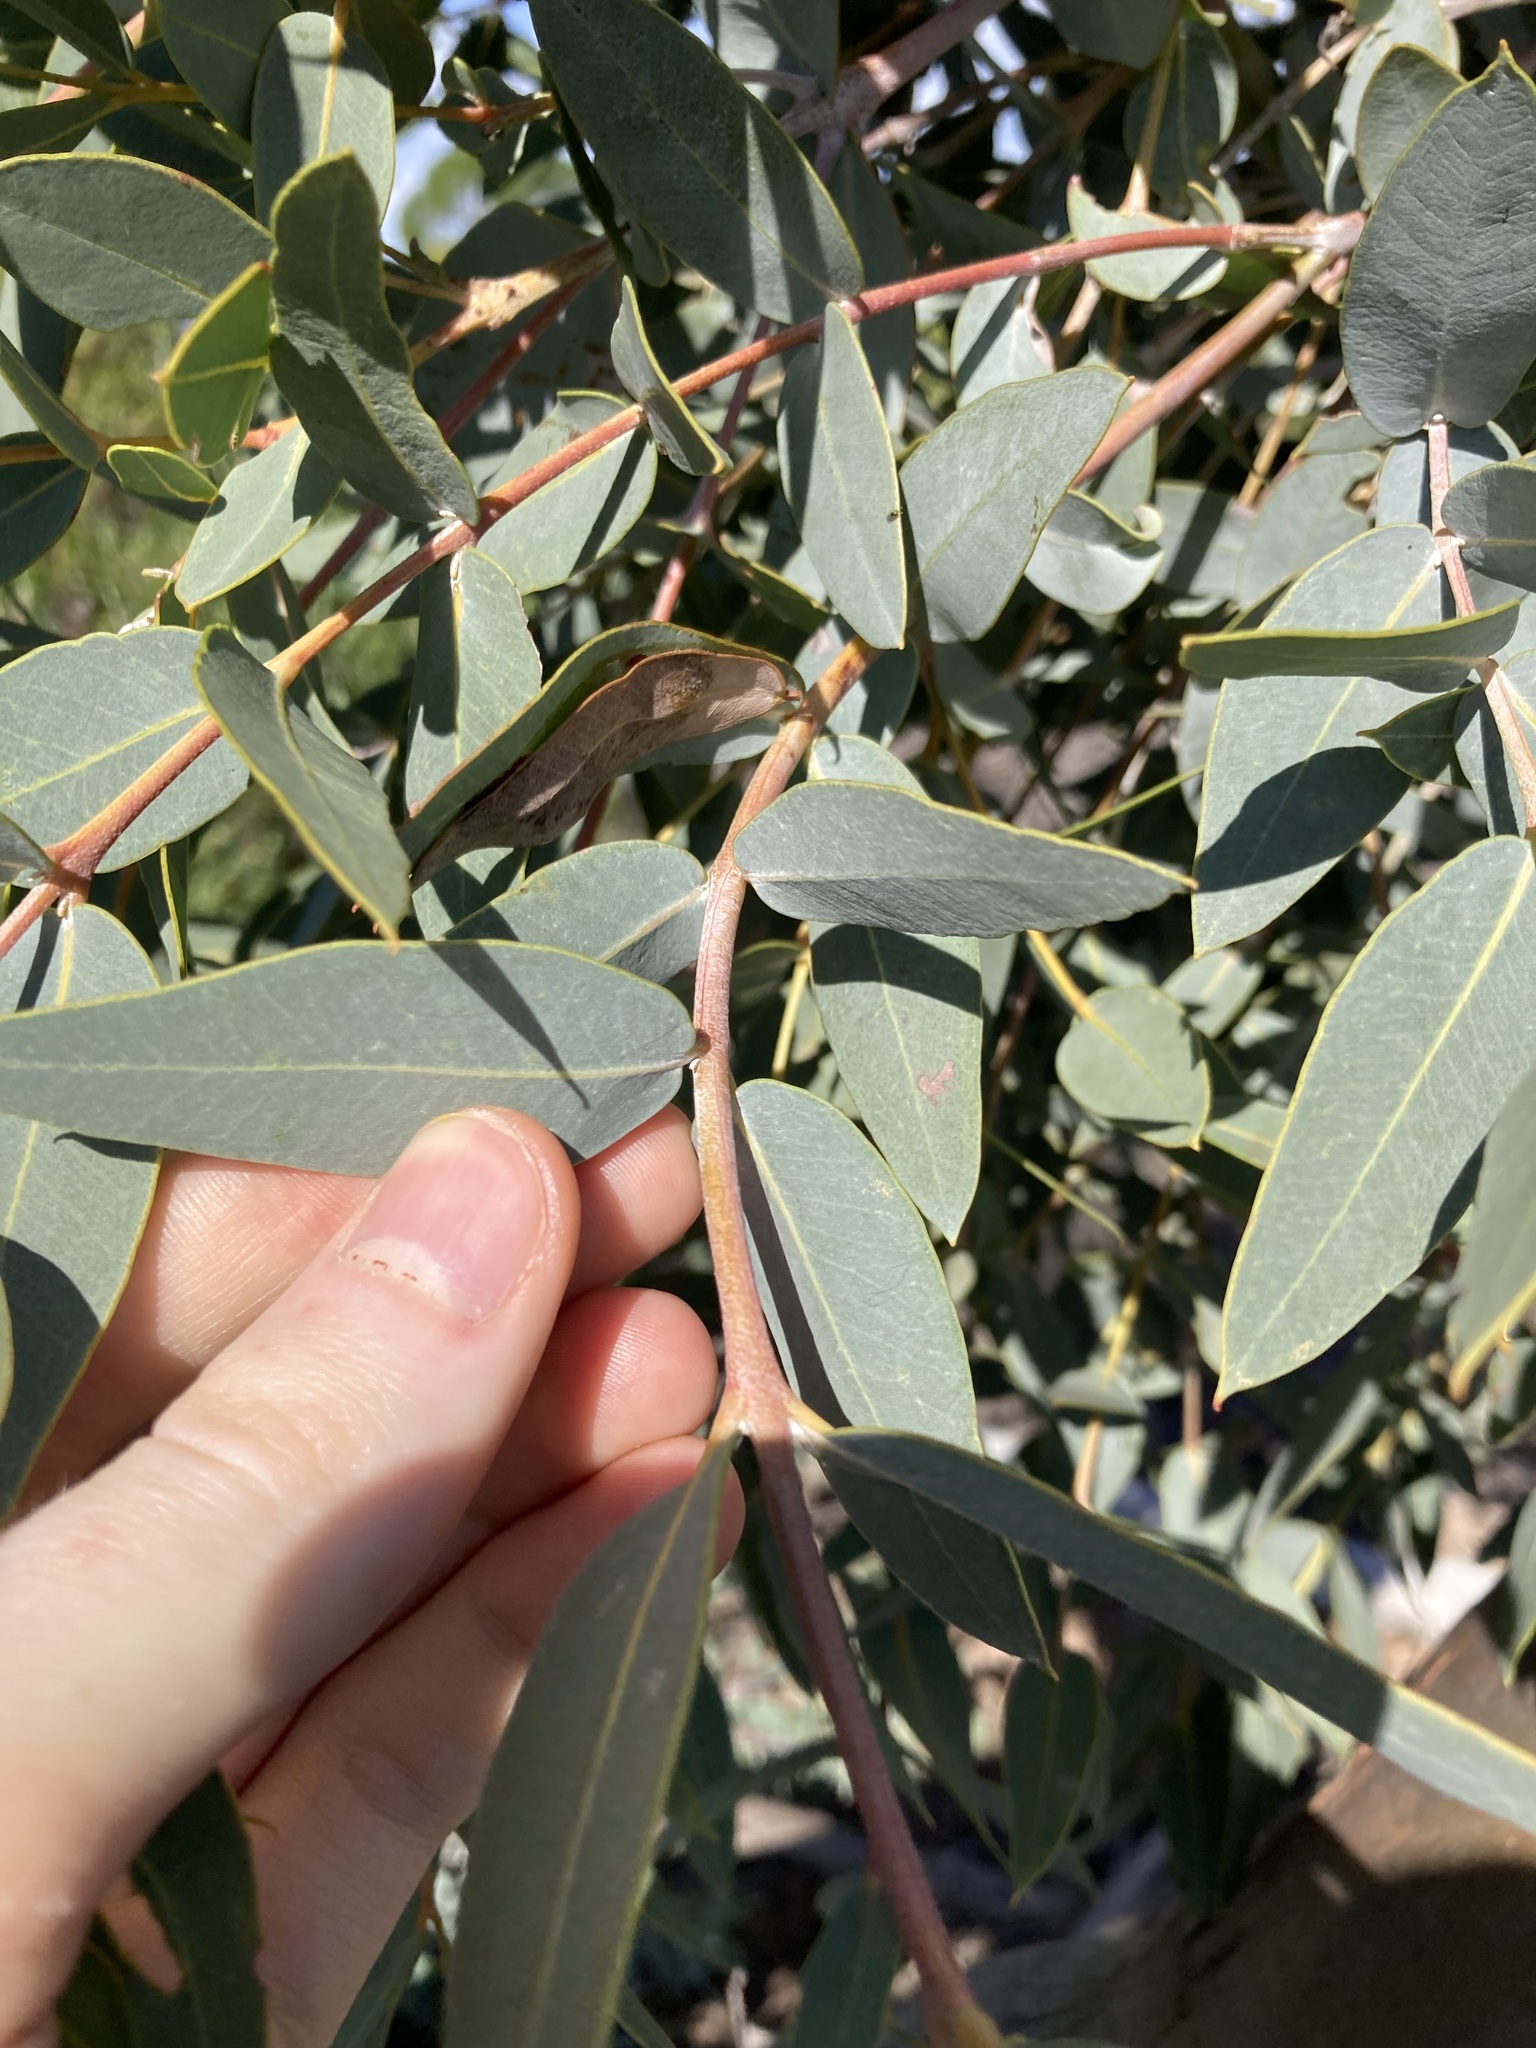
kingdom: Plantae
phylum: Tracheophyta
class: Magnoliopsida
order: Myrtales
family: Myrtaceae
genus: Eucalyptus
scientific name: Eucalyptus eudesmioides
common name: Desert gum
